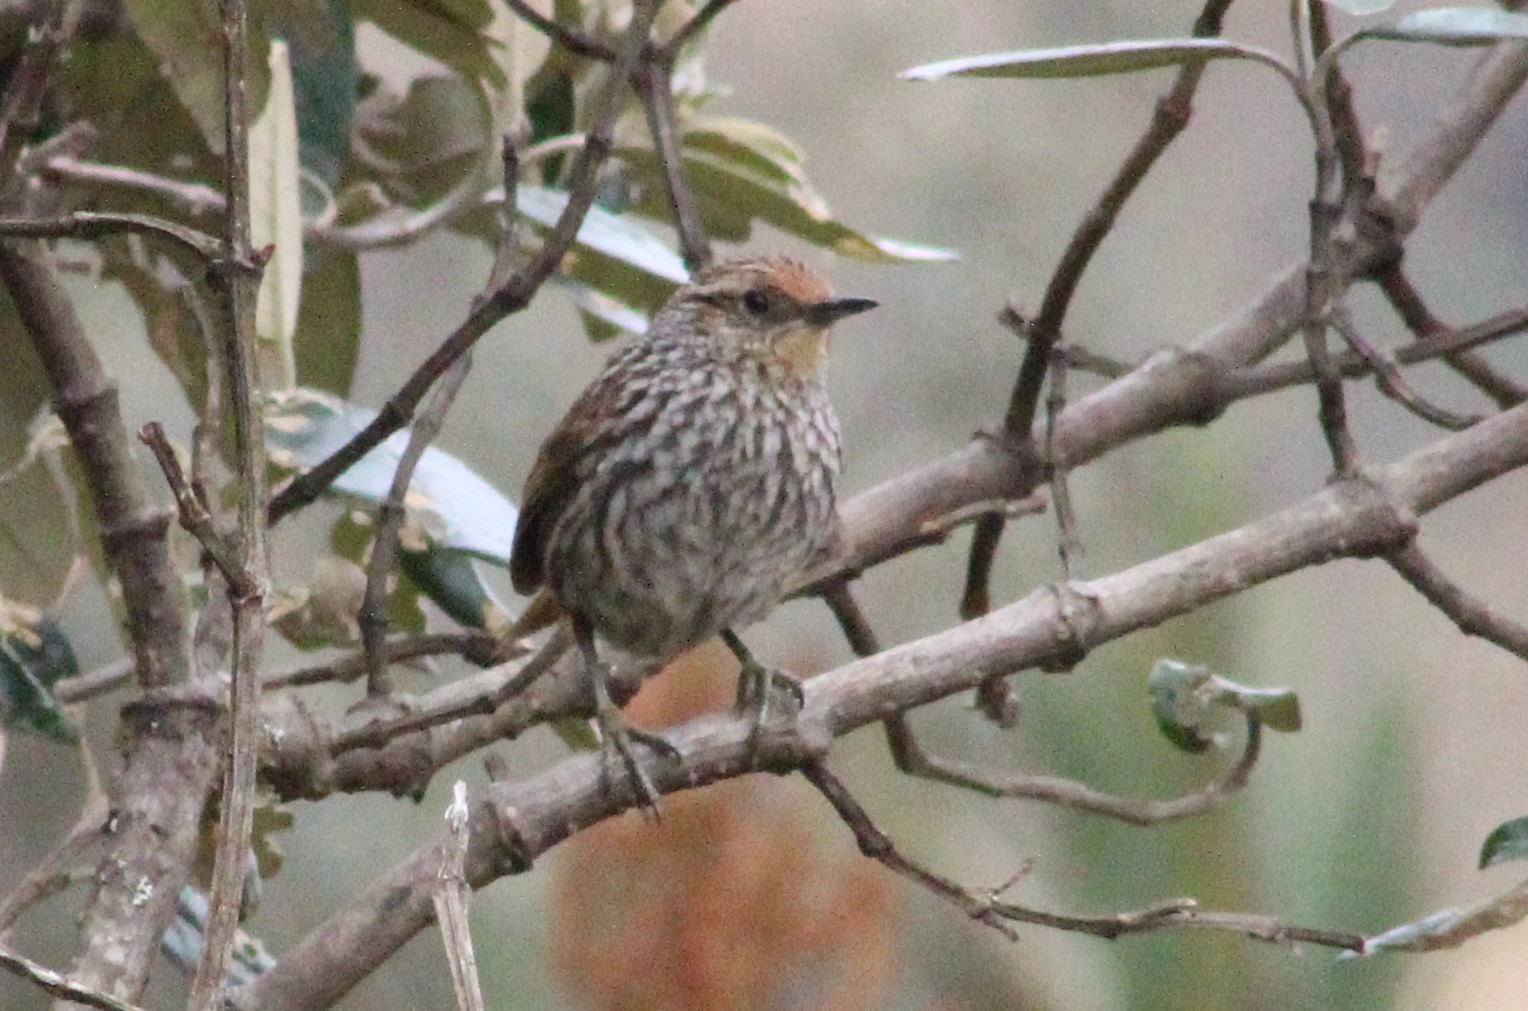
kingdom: Animalia
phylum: Chordata
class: Aves
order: Passeriformes
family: Furnariidae
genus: Asthenes
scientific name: Asthenes flammulata
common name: Many-striped canastero
